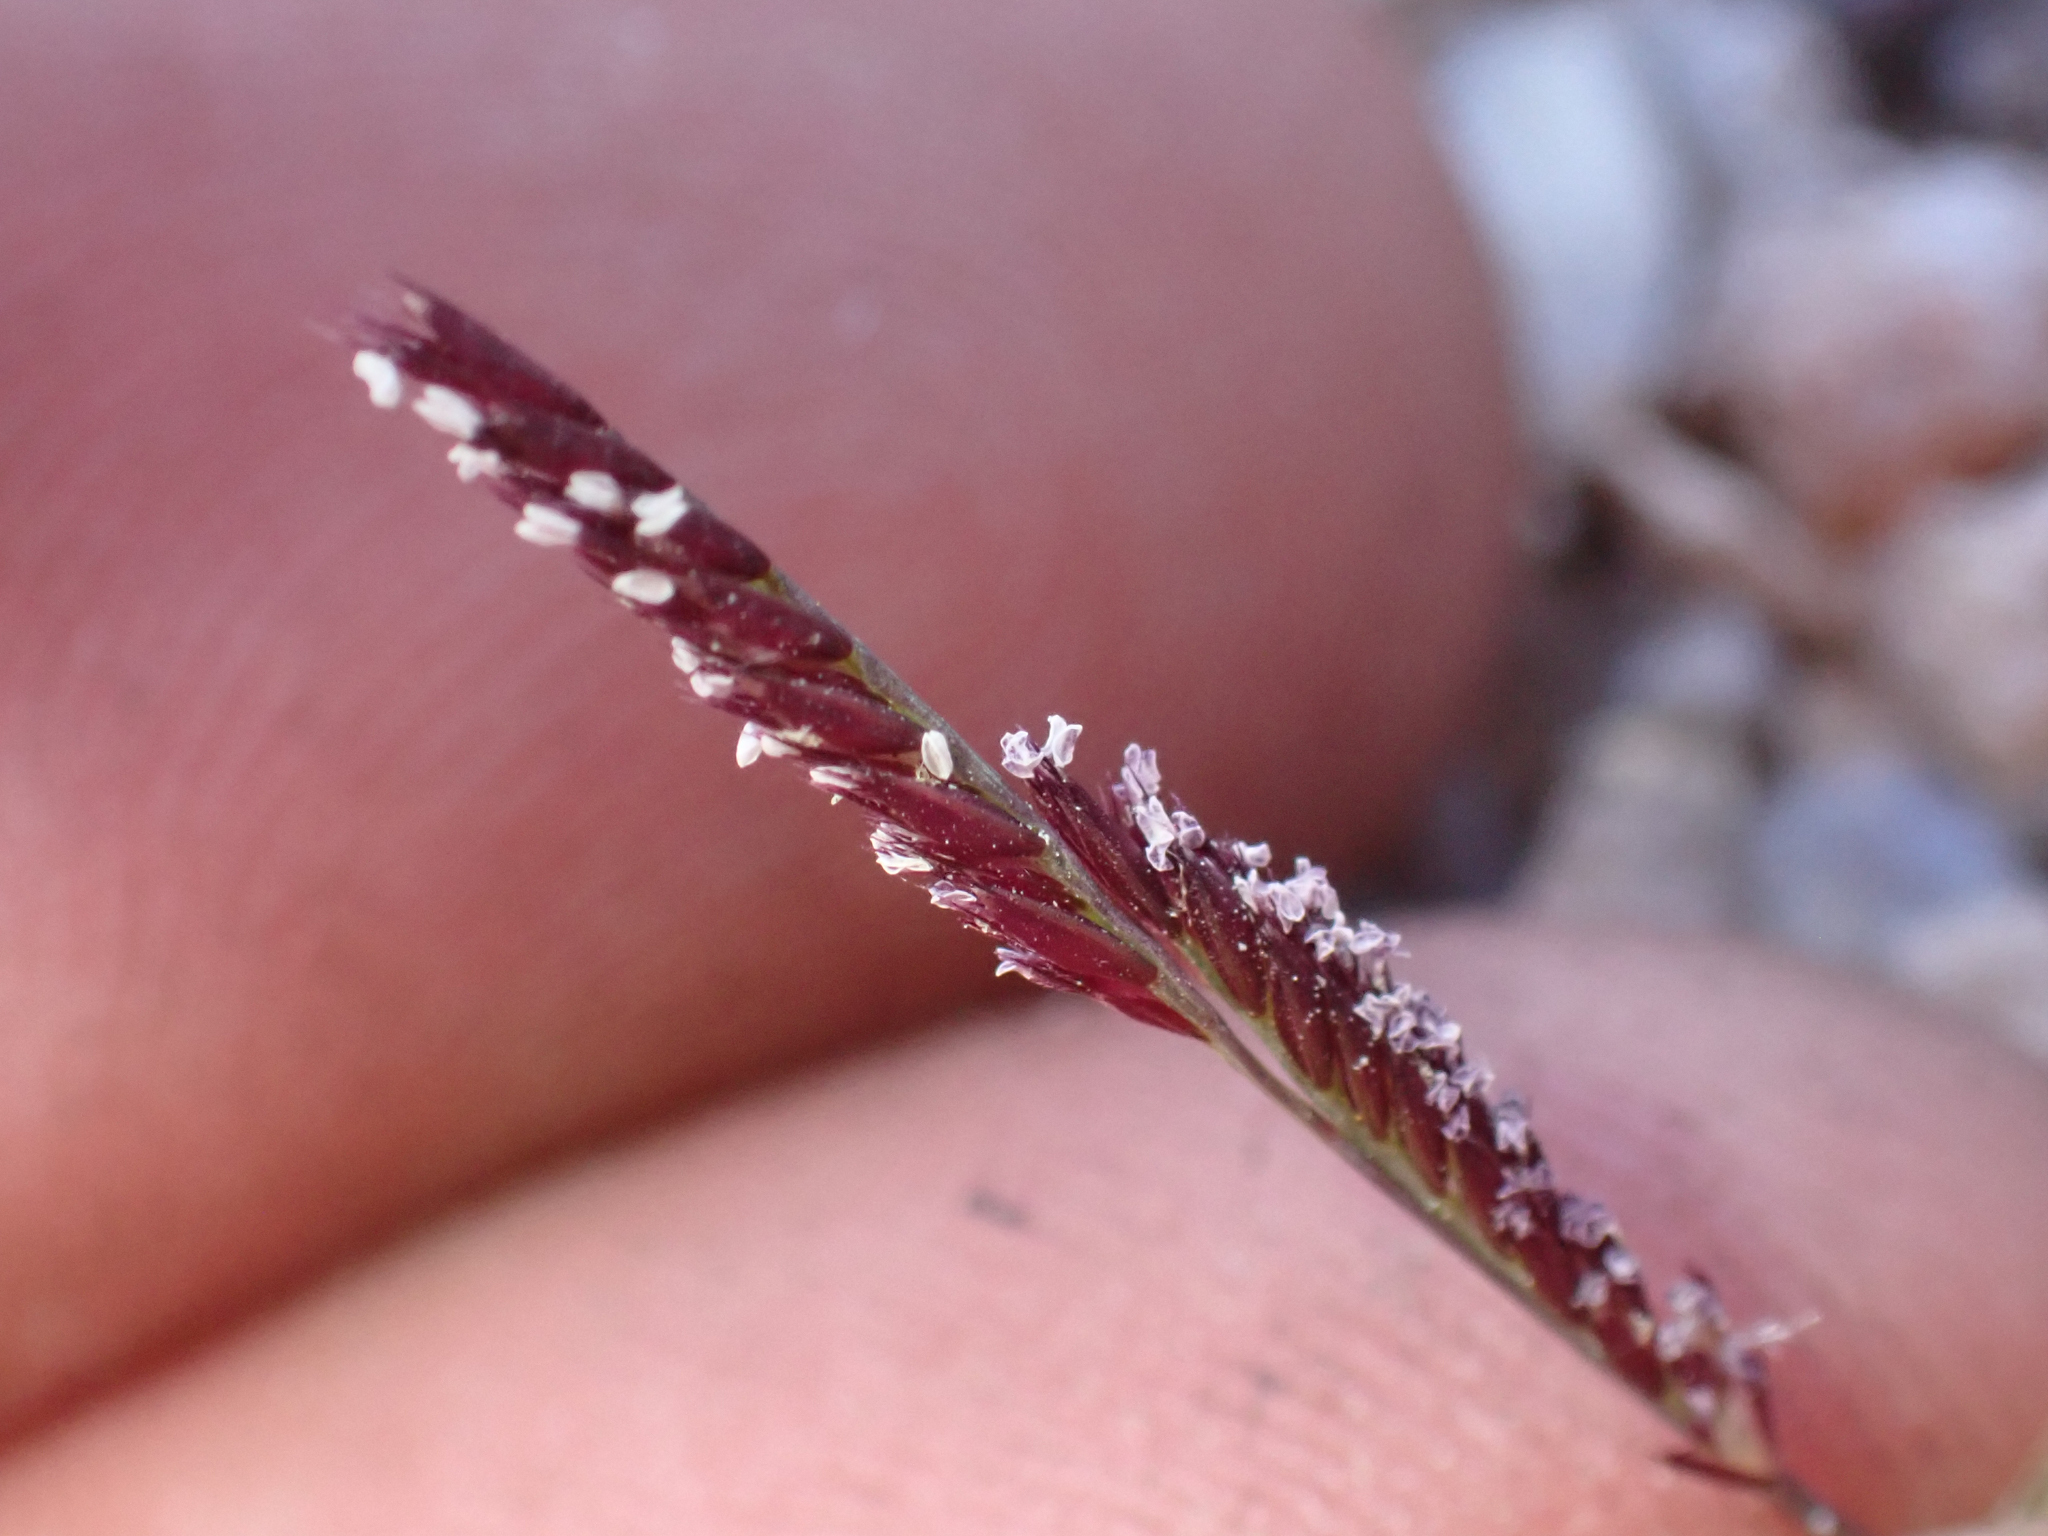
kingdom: Plantae
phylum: Tracheophyta
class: Liliopsida
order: Poales
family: Poaceae
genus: Bouteloua
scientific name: Bouteloua barbata
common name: Six-weeks grama
